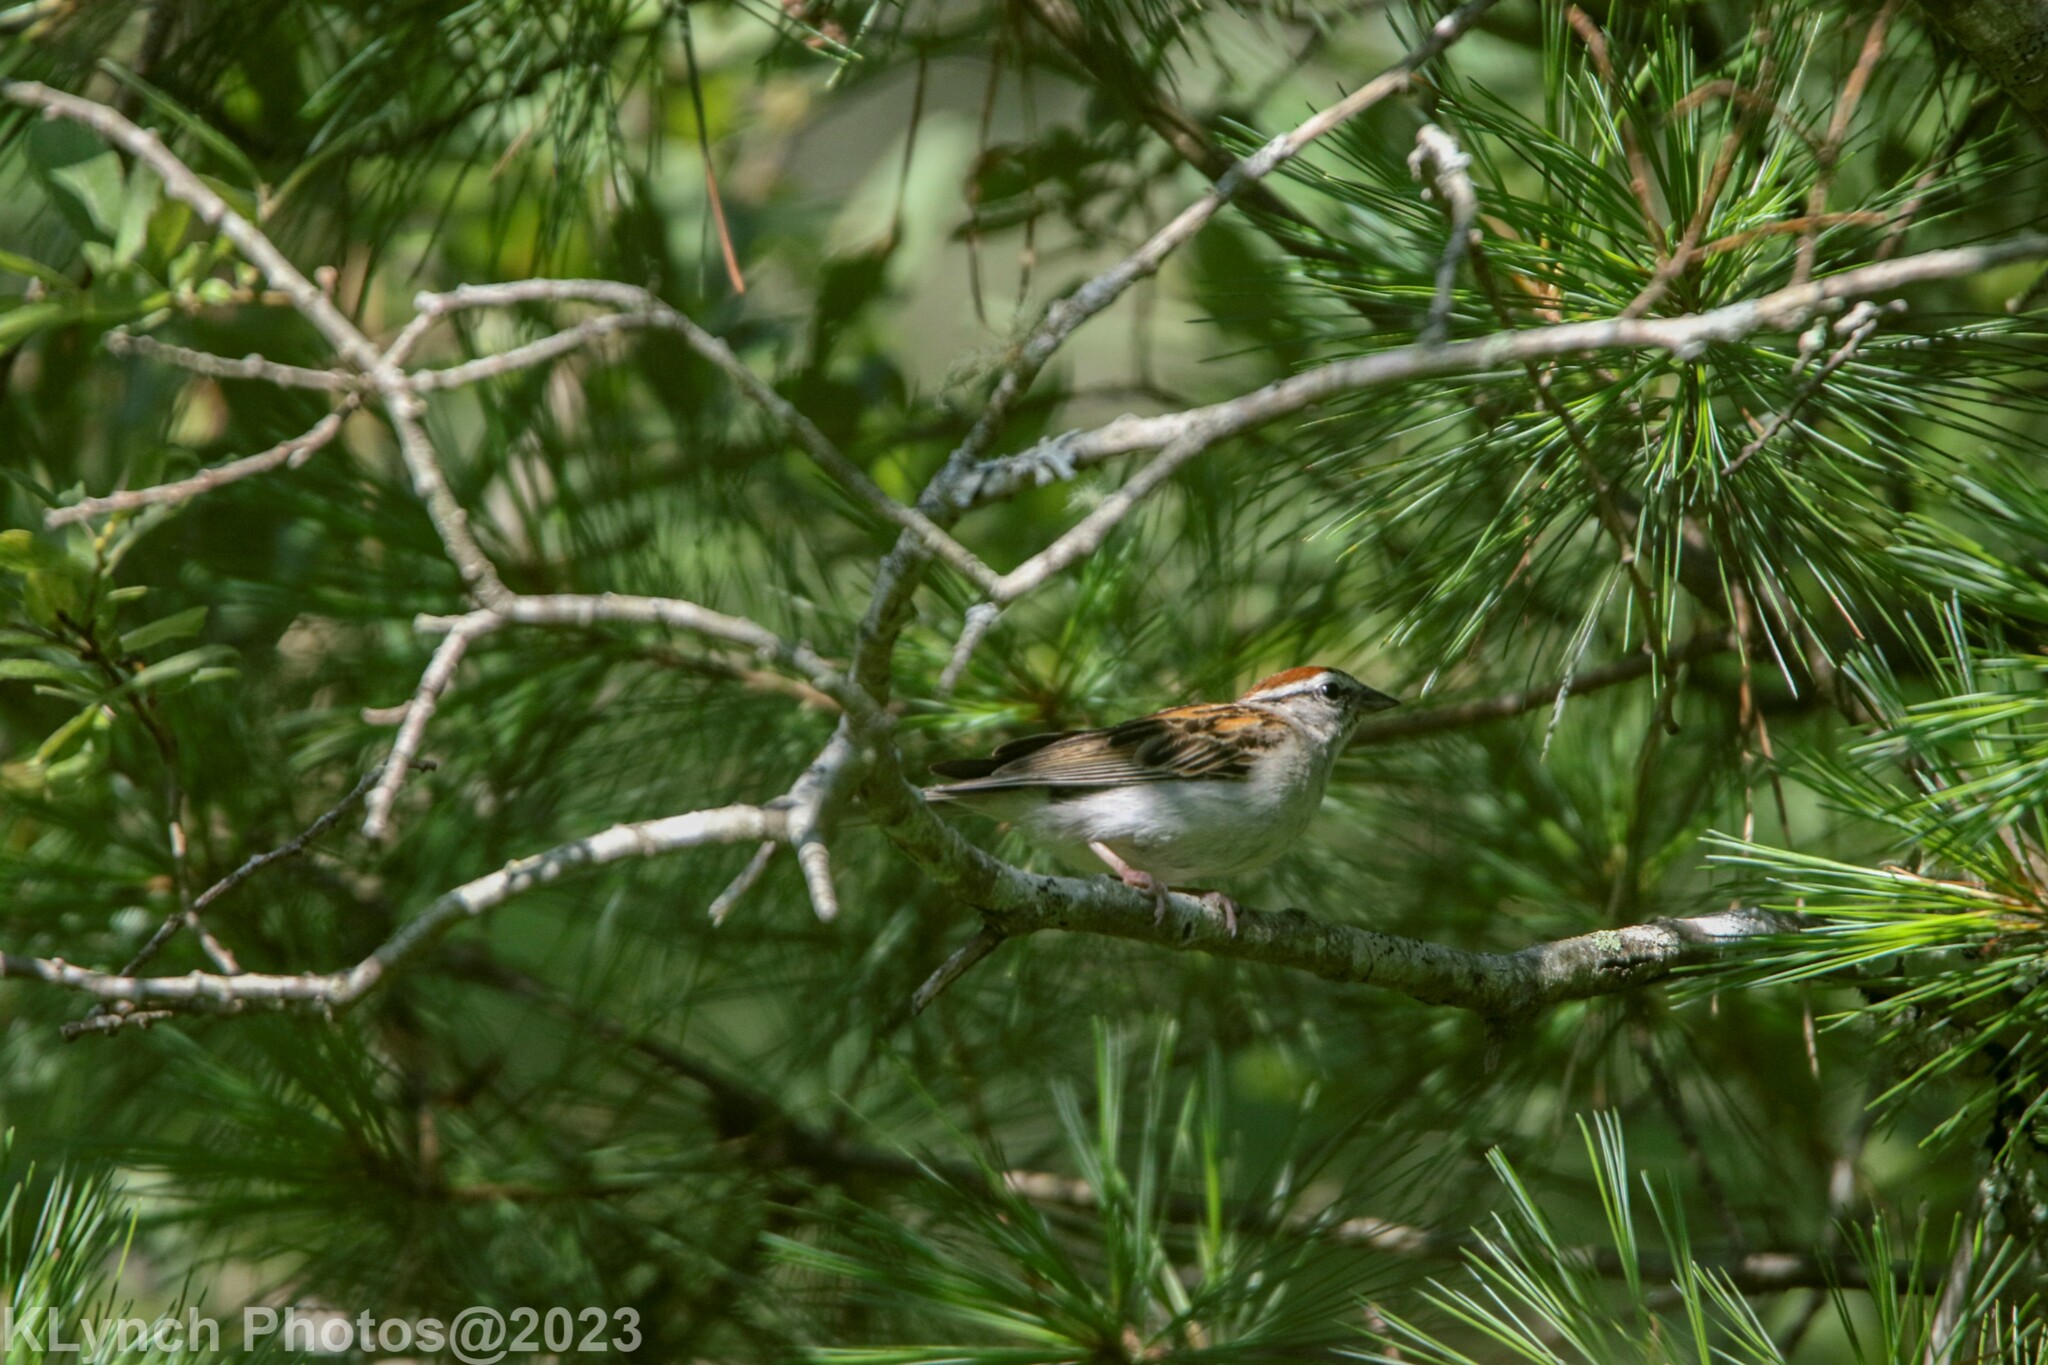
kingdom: Animalia
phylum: Chordata
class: Aves
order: Passeriformes
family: Passerellidae
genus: Spizella
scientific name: Spizella passerina
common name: Chipping sparrow
